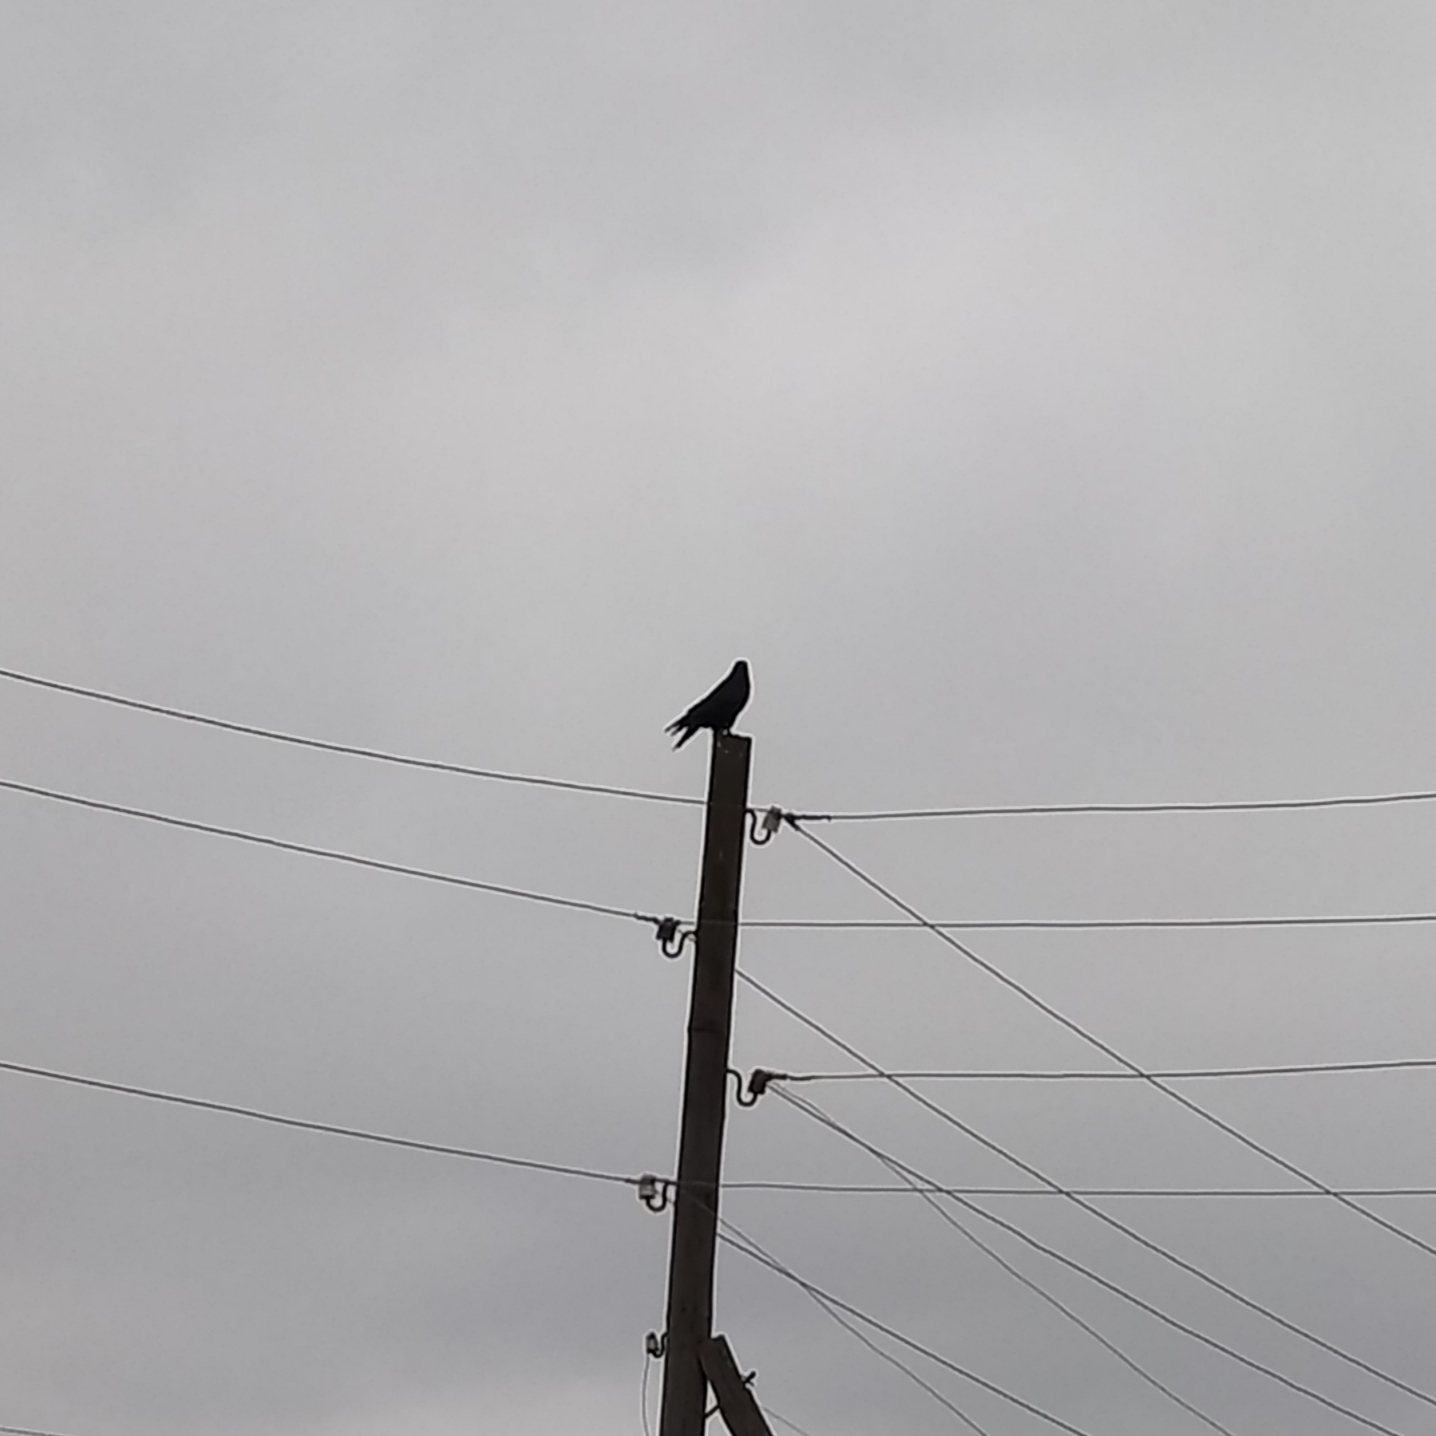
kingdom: Animalia
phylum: Chordata
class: Aves
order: Passeriformes
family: Corvidae
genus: Corvus
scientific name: Corvus corax
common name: Common raven
